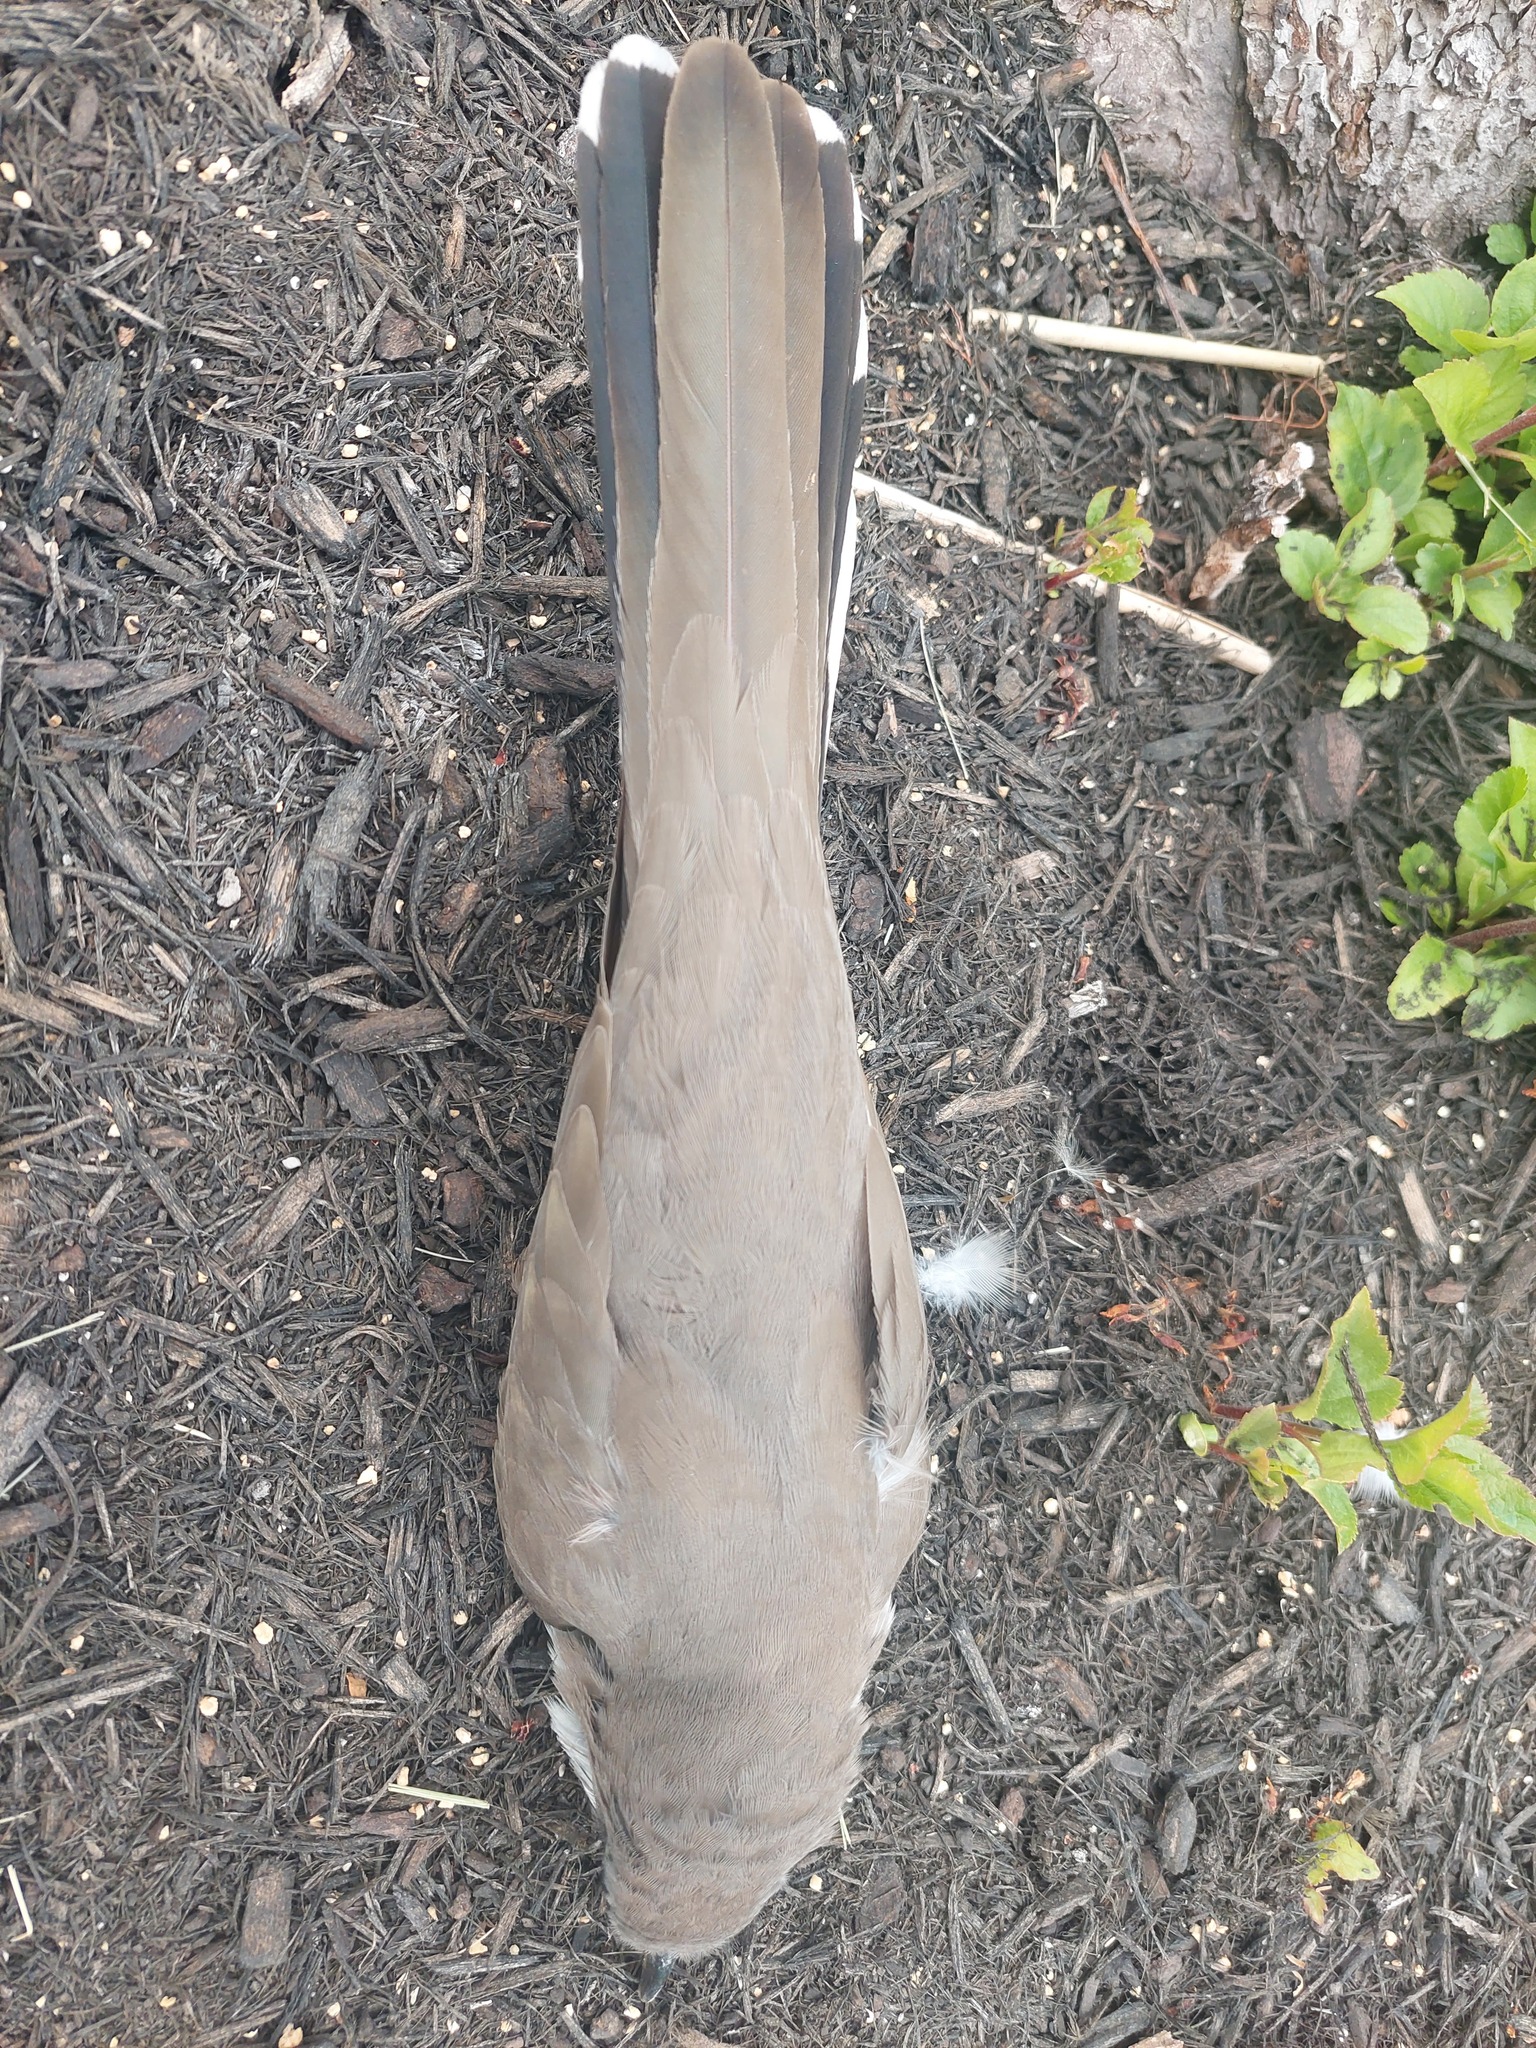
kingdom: Animalia
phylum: Chordata
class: Aves
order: Cuculiformes
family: Cuculidae
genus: Coccyzus
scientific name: Coccyzus americanus
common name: Yellow-billed cuckoo
